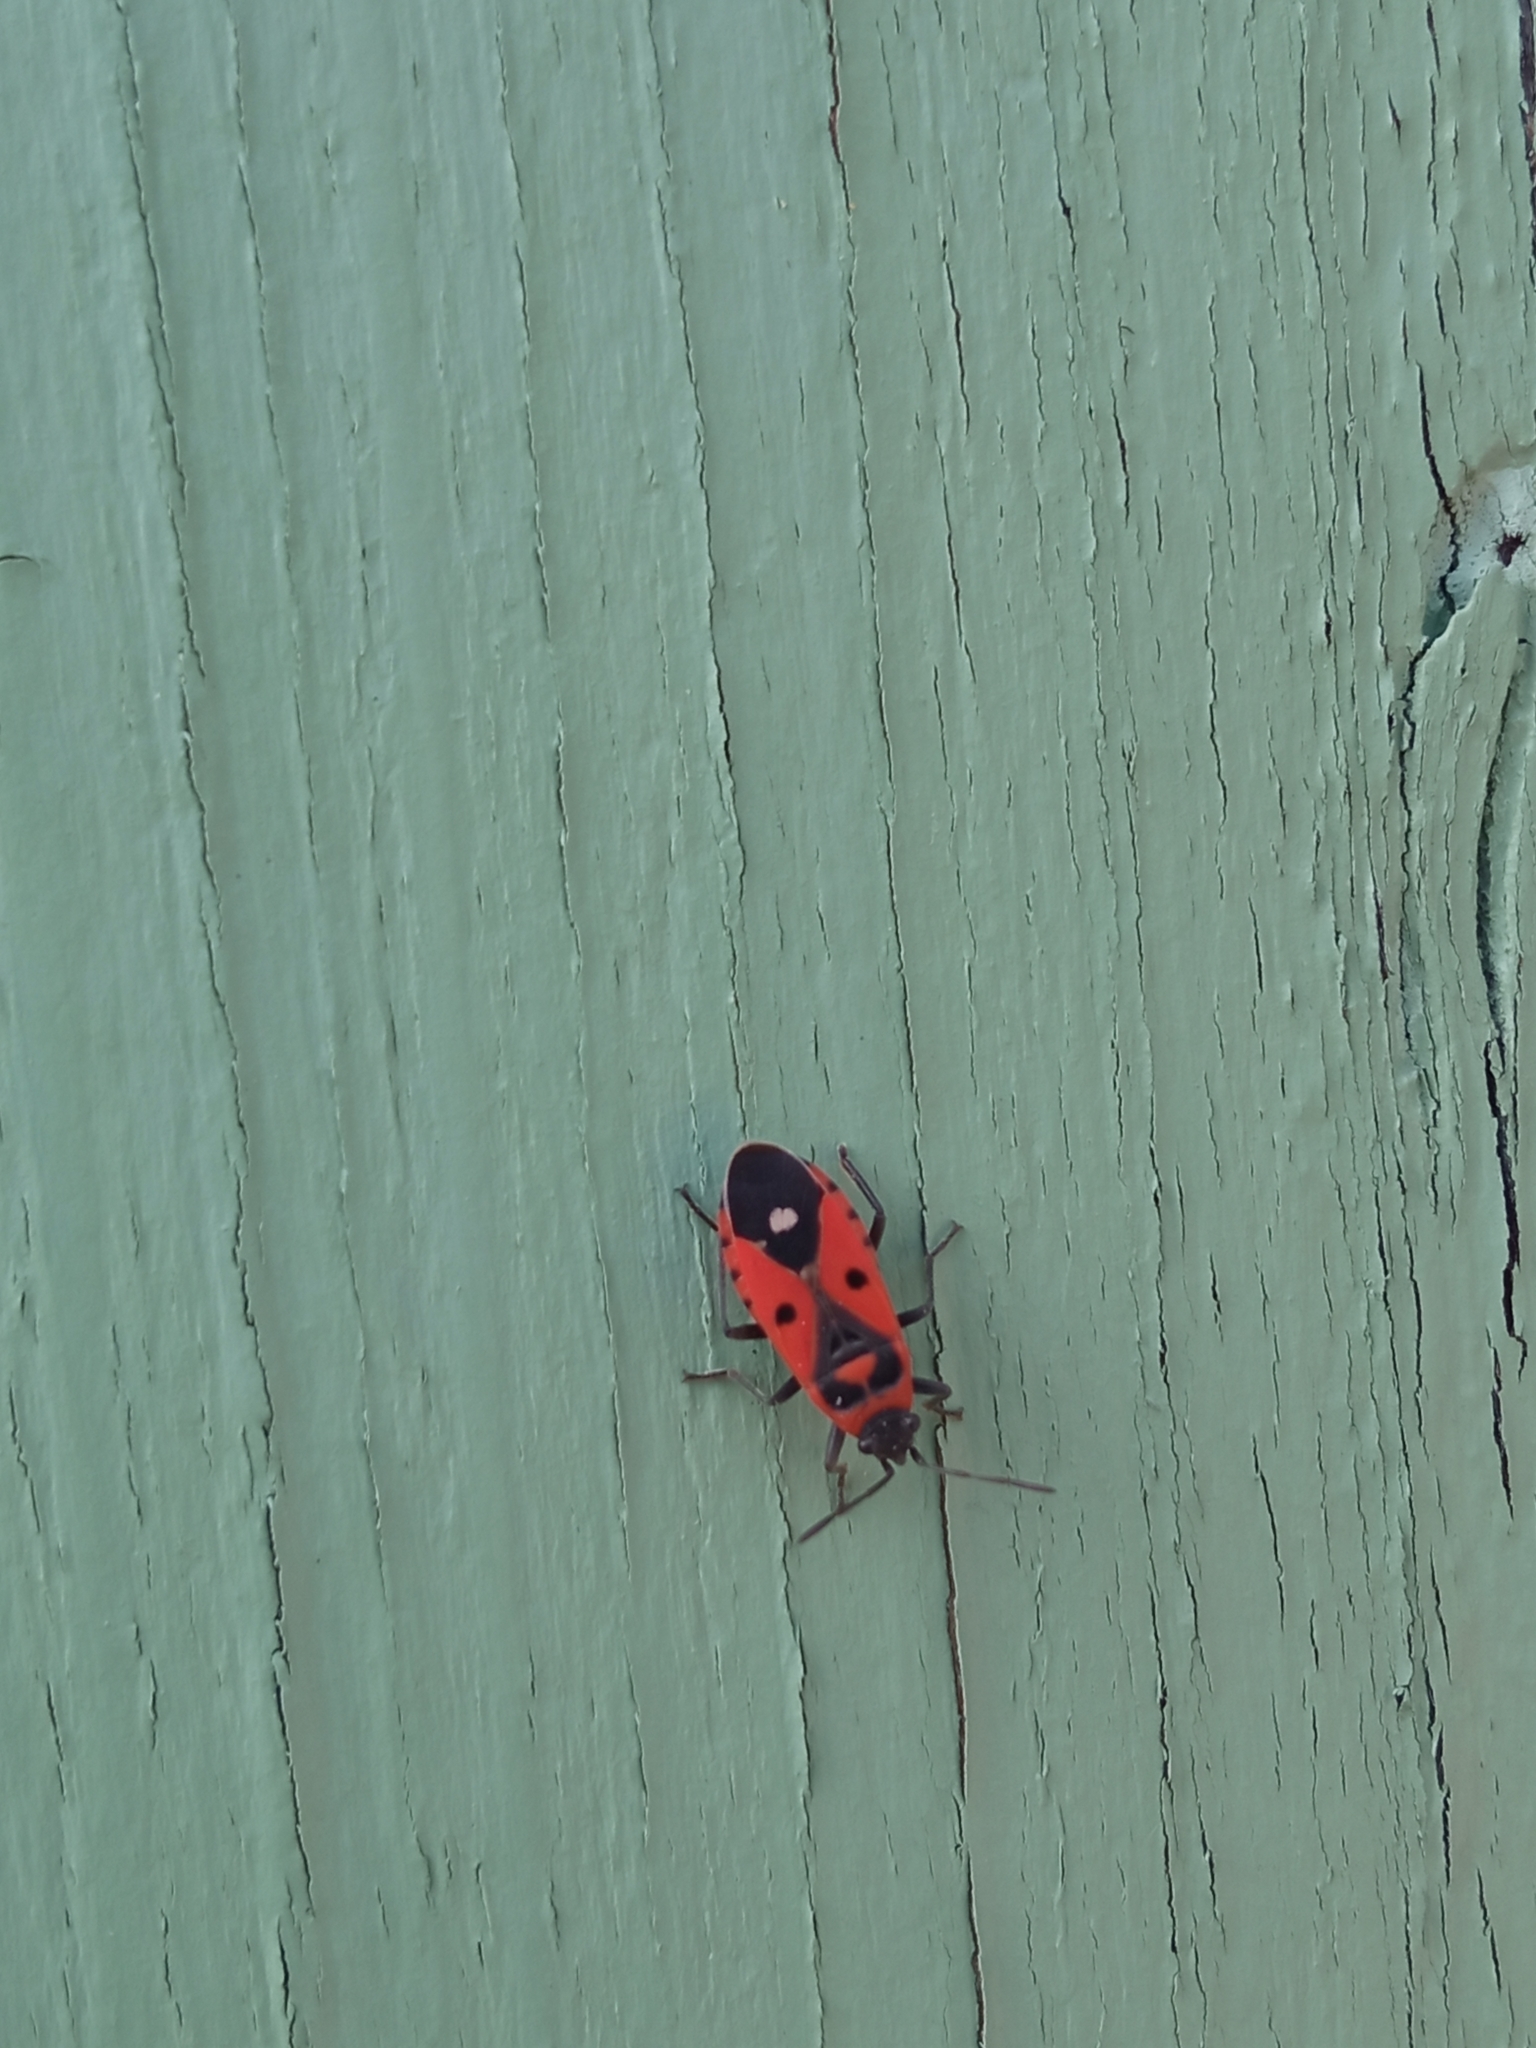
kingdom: Animalia
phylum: Arthropoda
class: Insecta
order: Hemiptera
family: Lygaeidae
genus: Melanocoryphus
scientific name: Melanocoryphus albomaculatus
